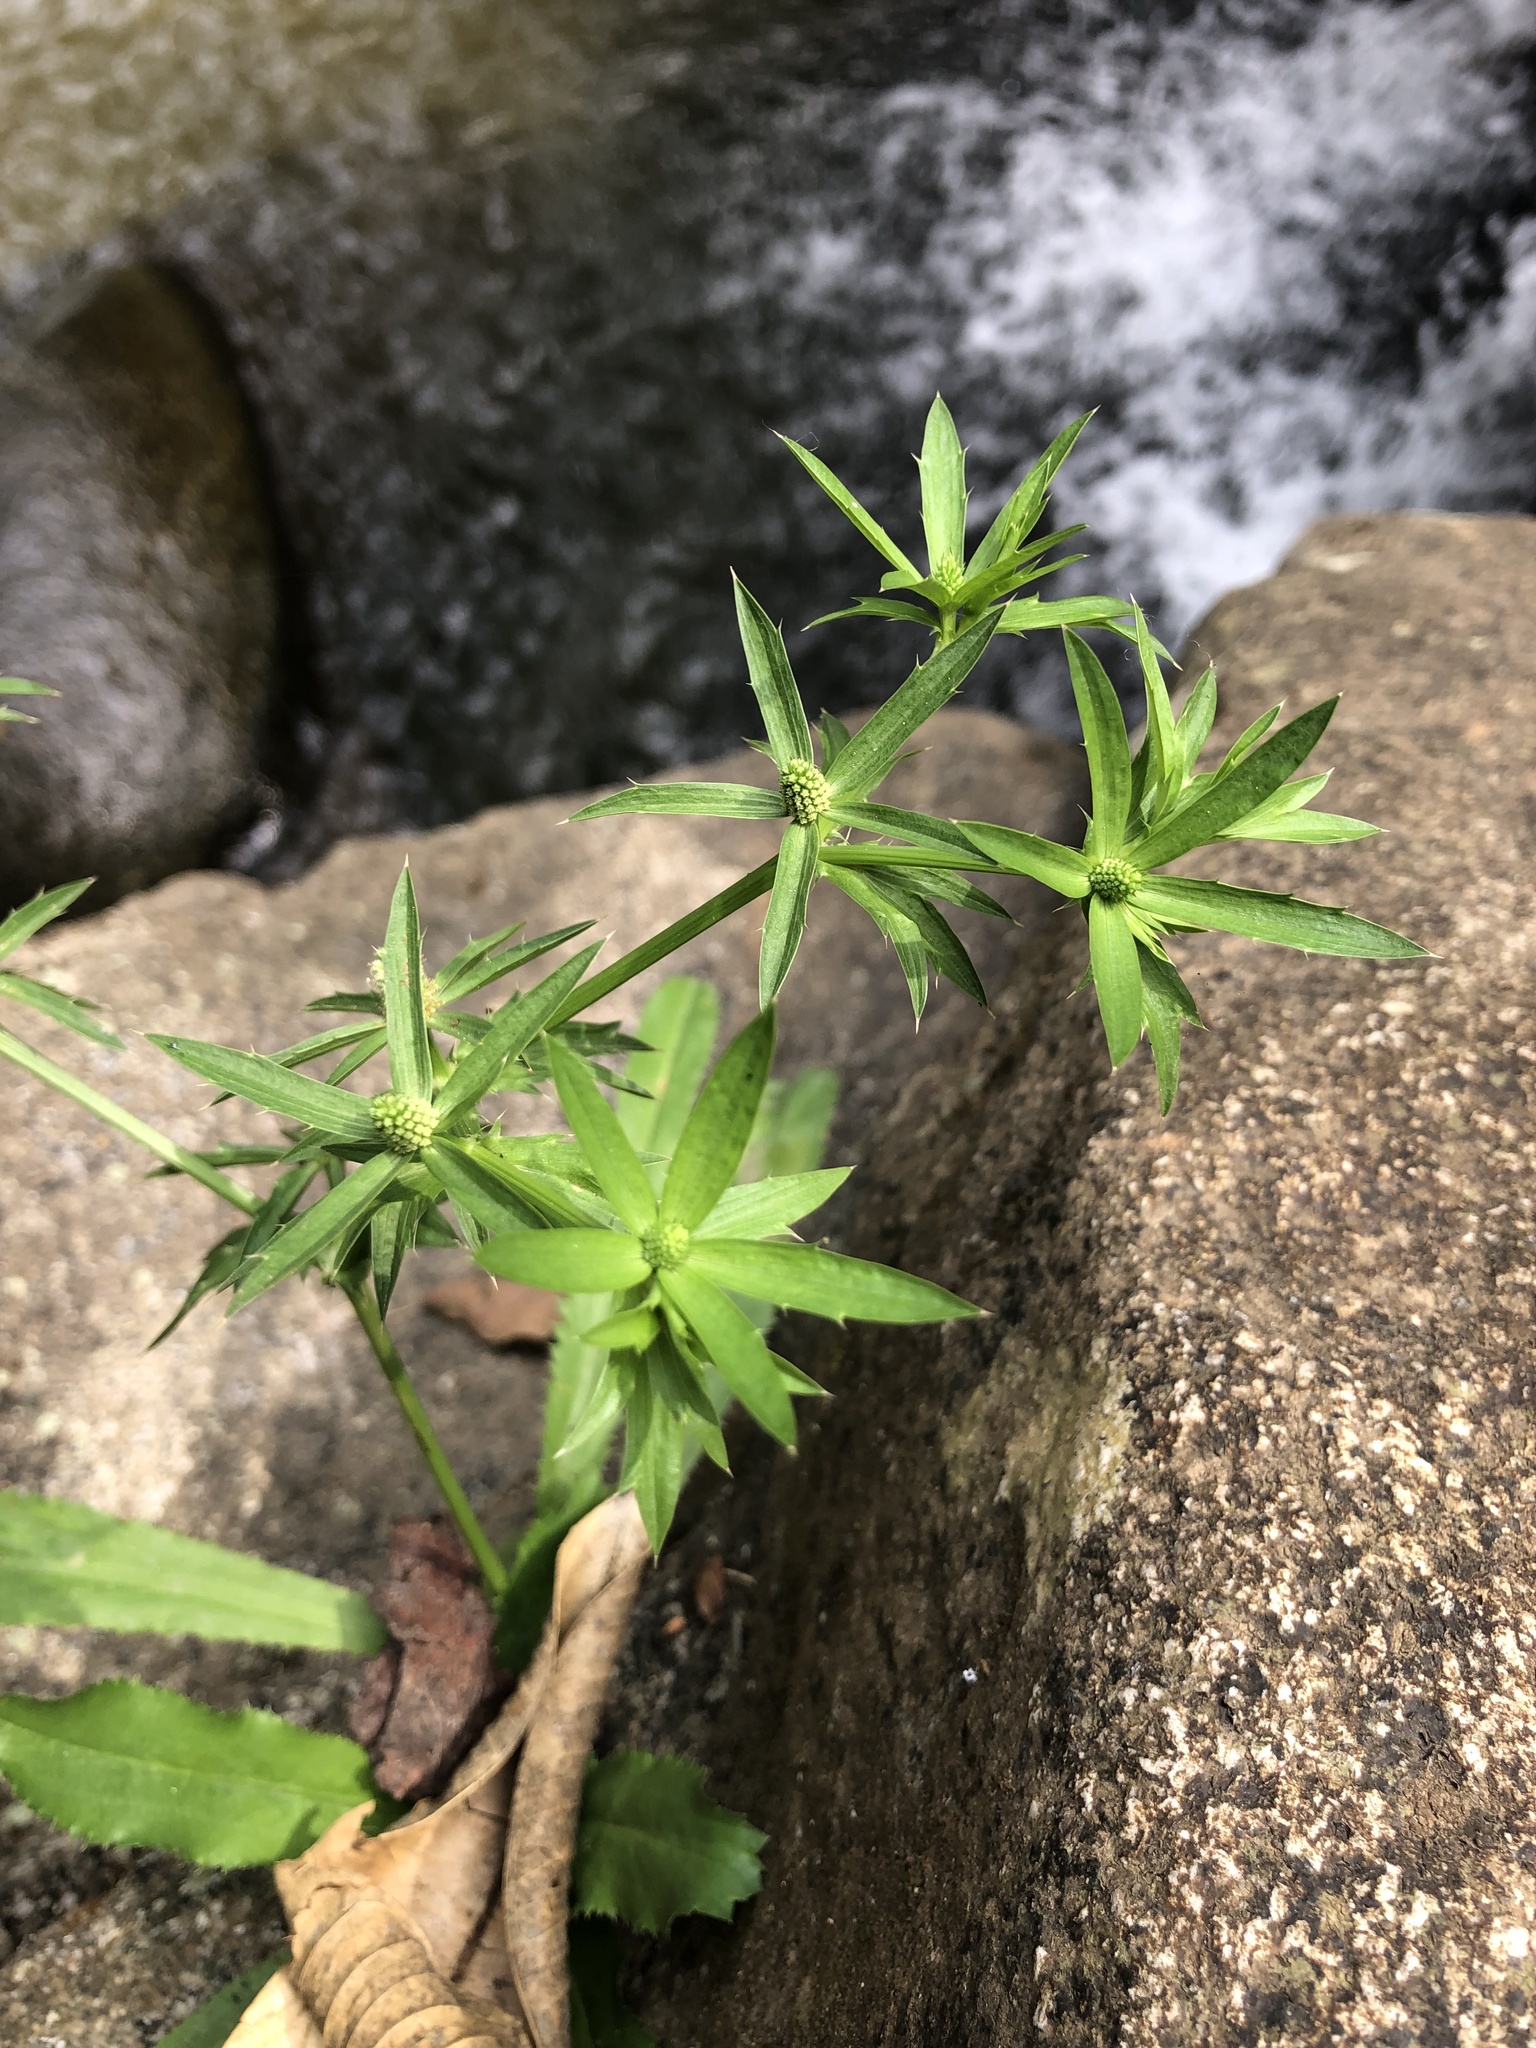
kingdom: Plantae
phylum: Tracheophyta
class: Magnoliopsida
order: Apiales
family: Apiaceae
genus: Eryngium
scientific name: Eryngium foetidum
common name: Fitweed
